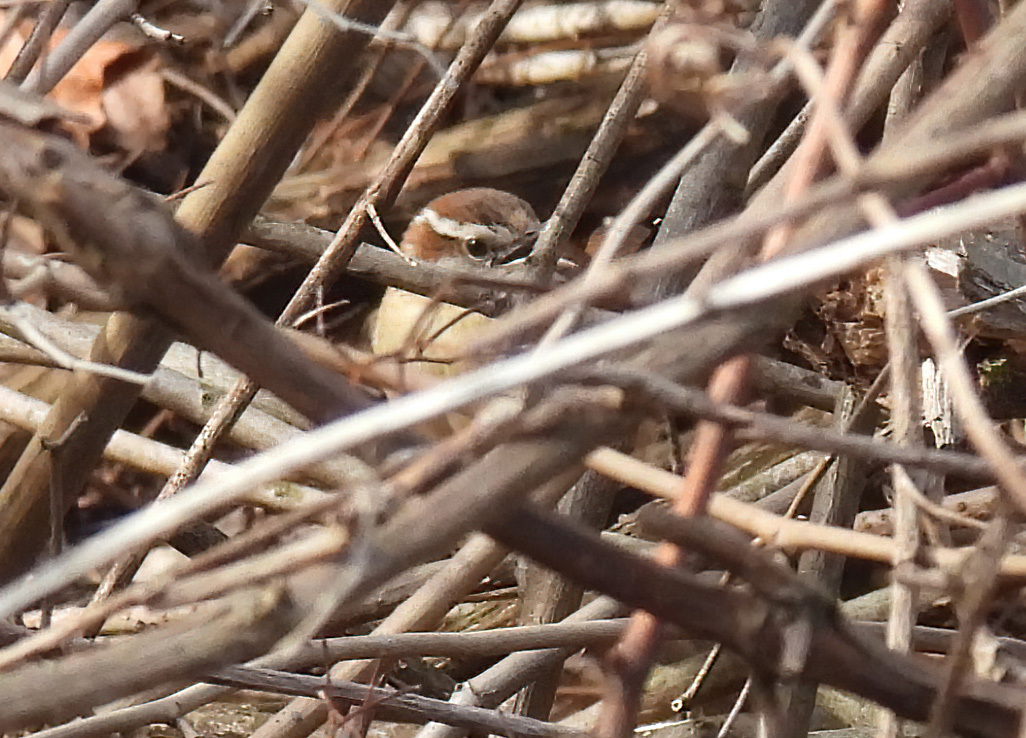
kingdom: Animalia
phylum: Chordata
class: Aves
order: Passeriformes
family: Troglodytidae
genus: Thryothorus
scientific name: Thryothorus ludovicianus
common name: Carolina wren
